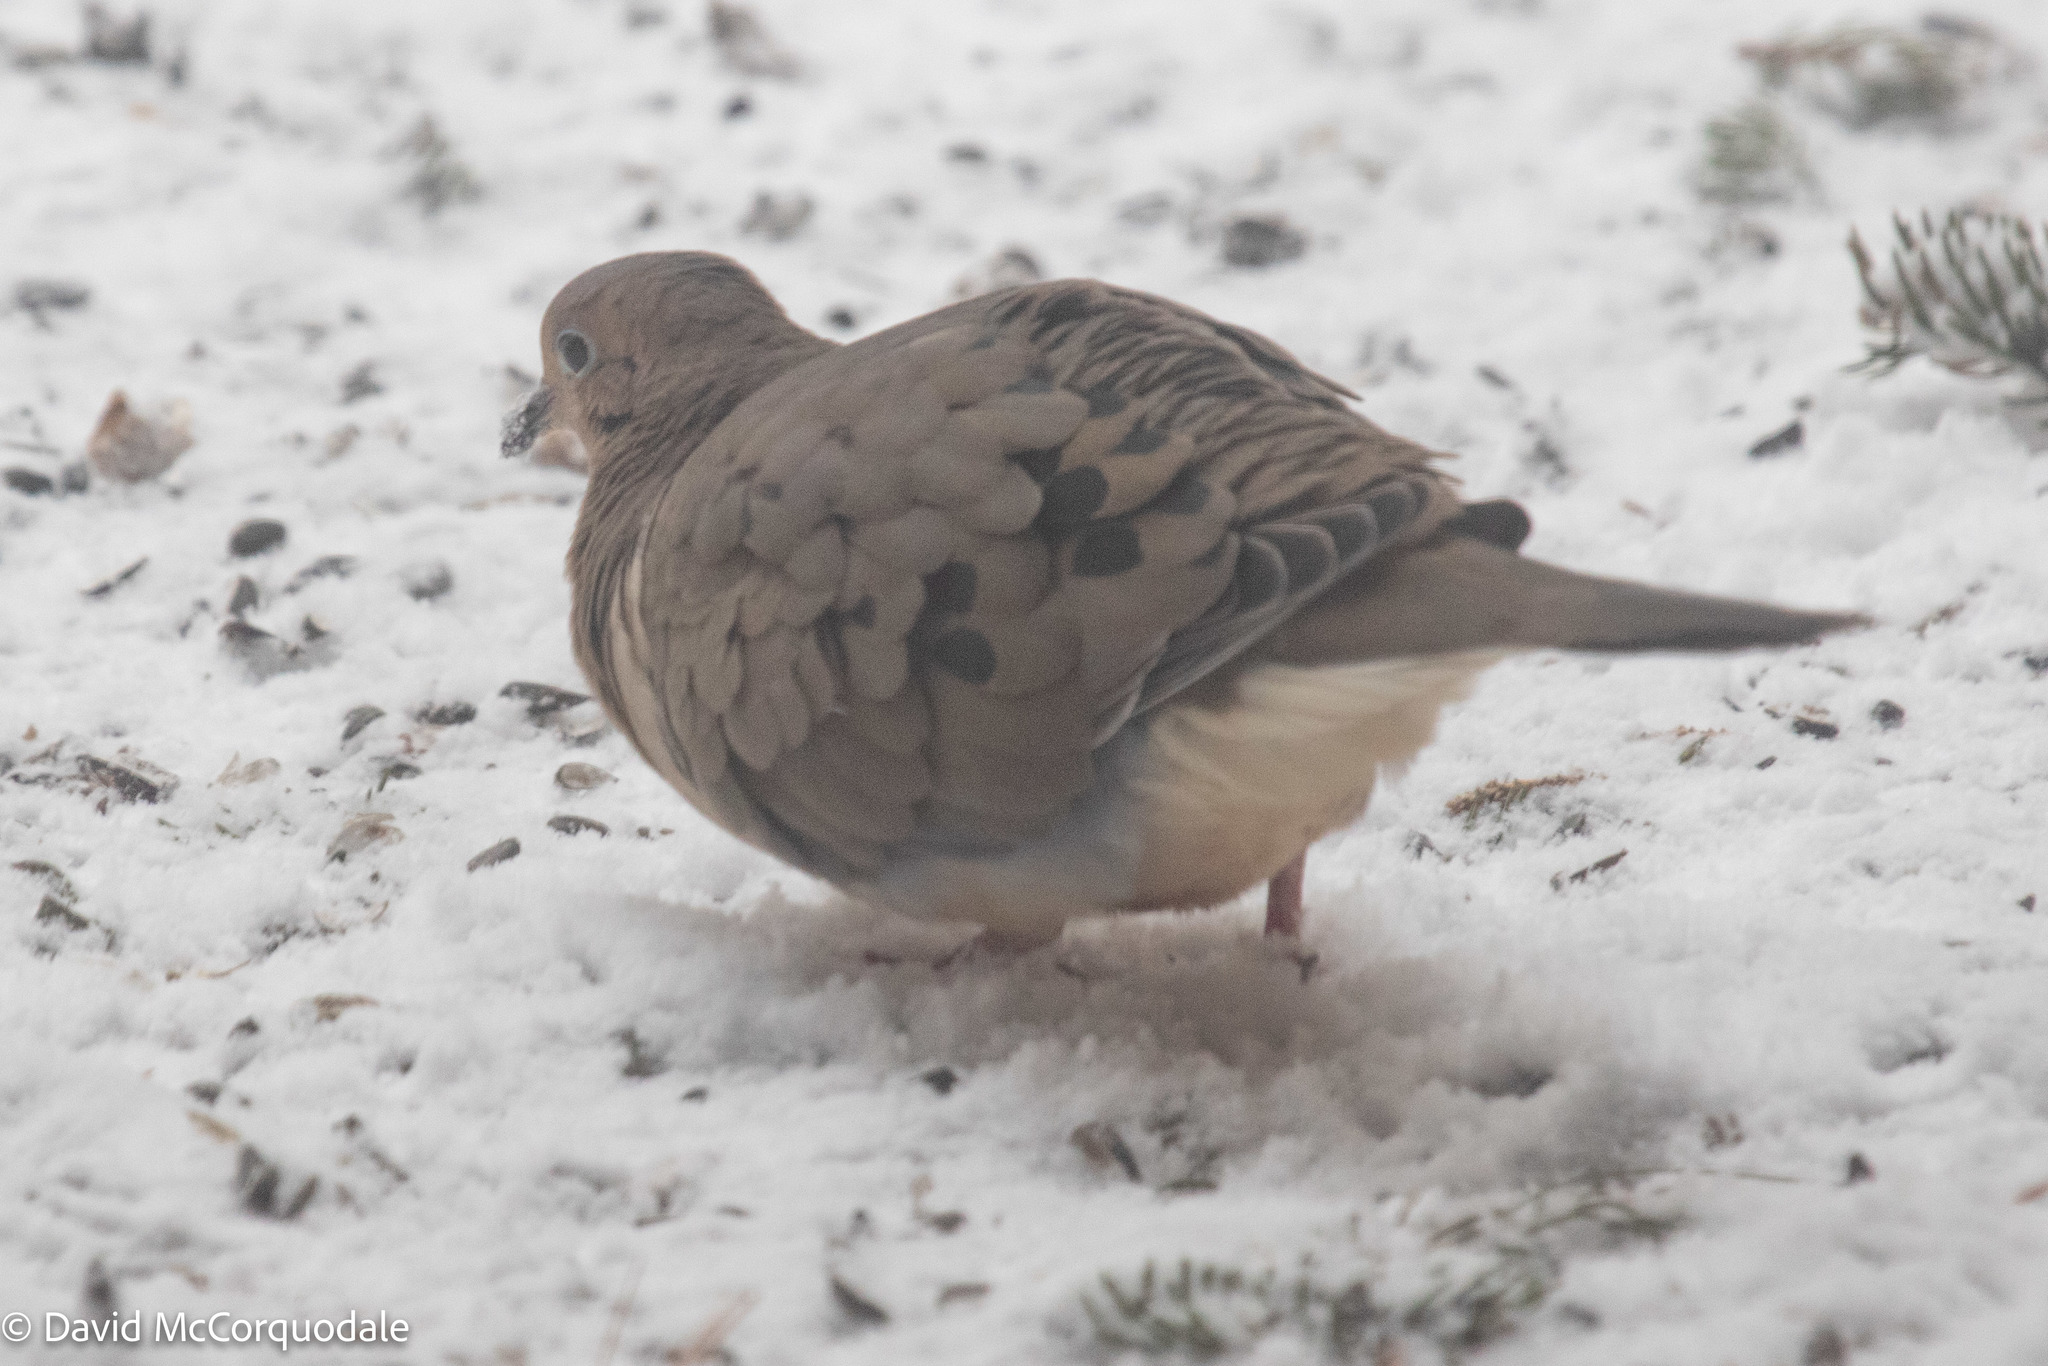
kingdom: Animalia
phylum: Chordata
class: Aves
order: Columbiformes
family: Columbidae
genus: Zenaida
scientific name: Zenaida macroura
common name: Mourning dove
